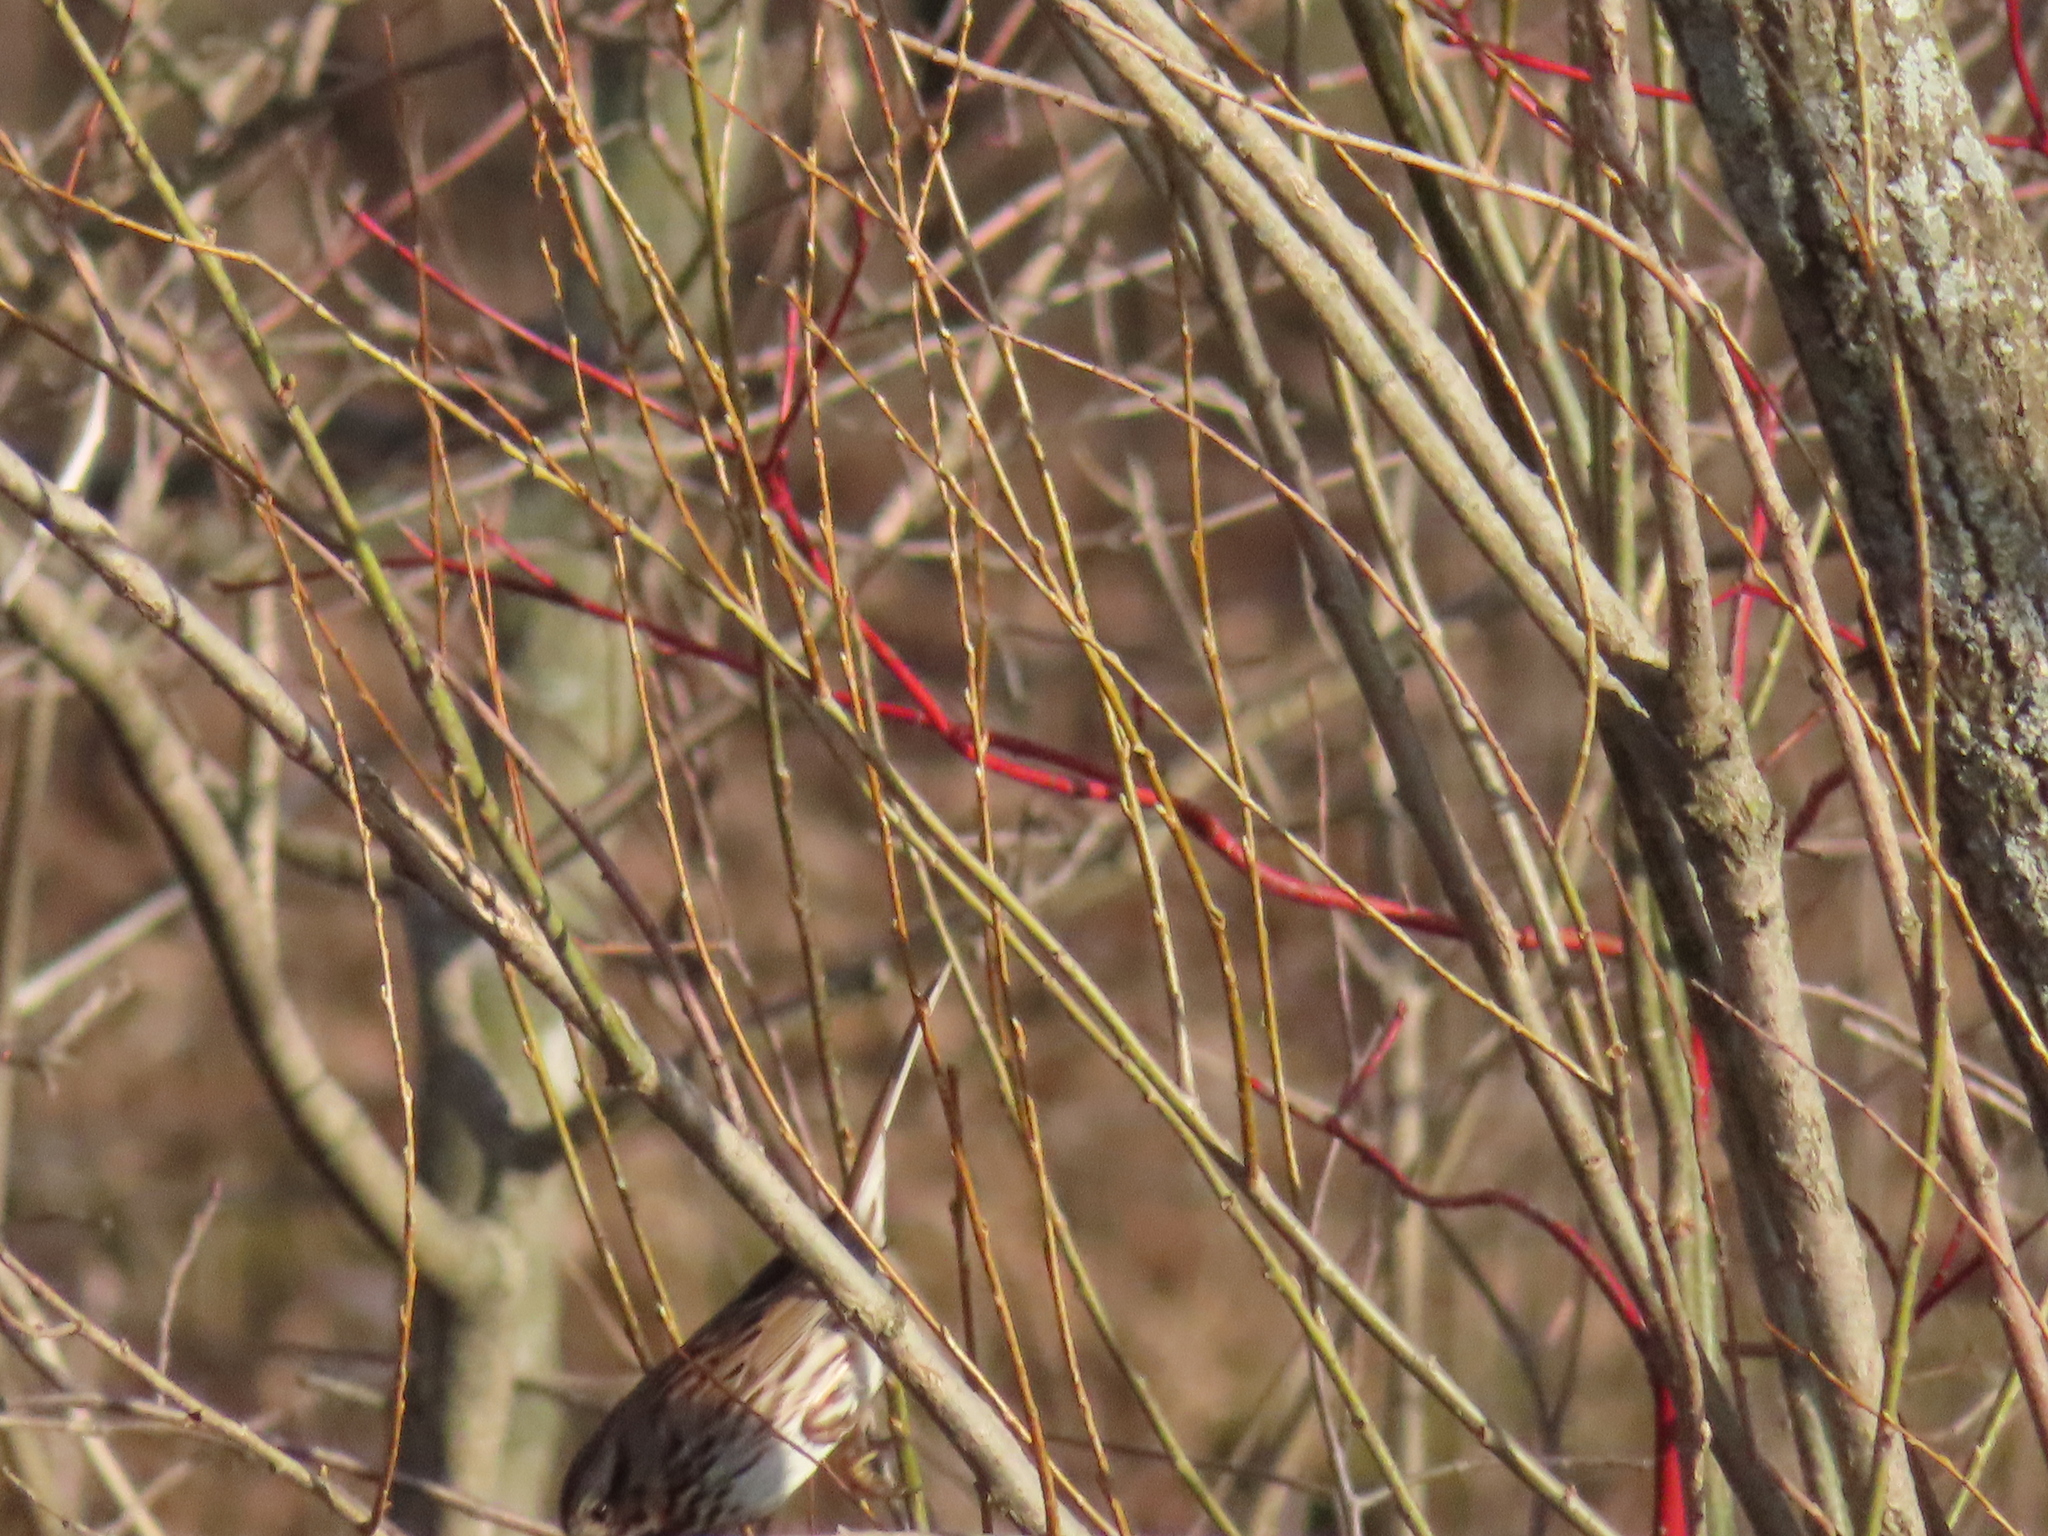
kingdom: Animalia
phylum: Chordata
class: Aves
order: Passeriformes
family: Passerellidae
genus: Melospiza
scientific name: Melospiza melodia
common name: Song sparrow
